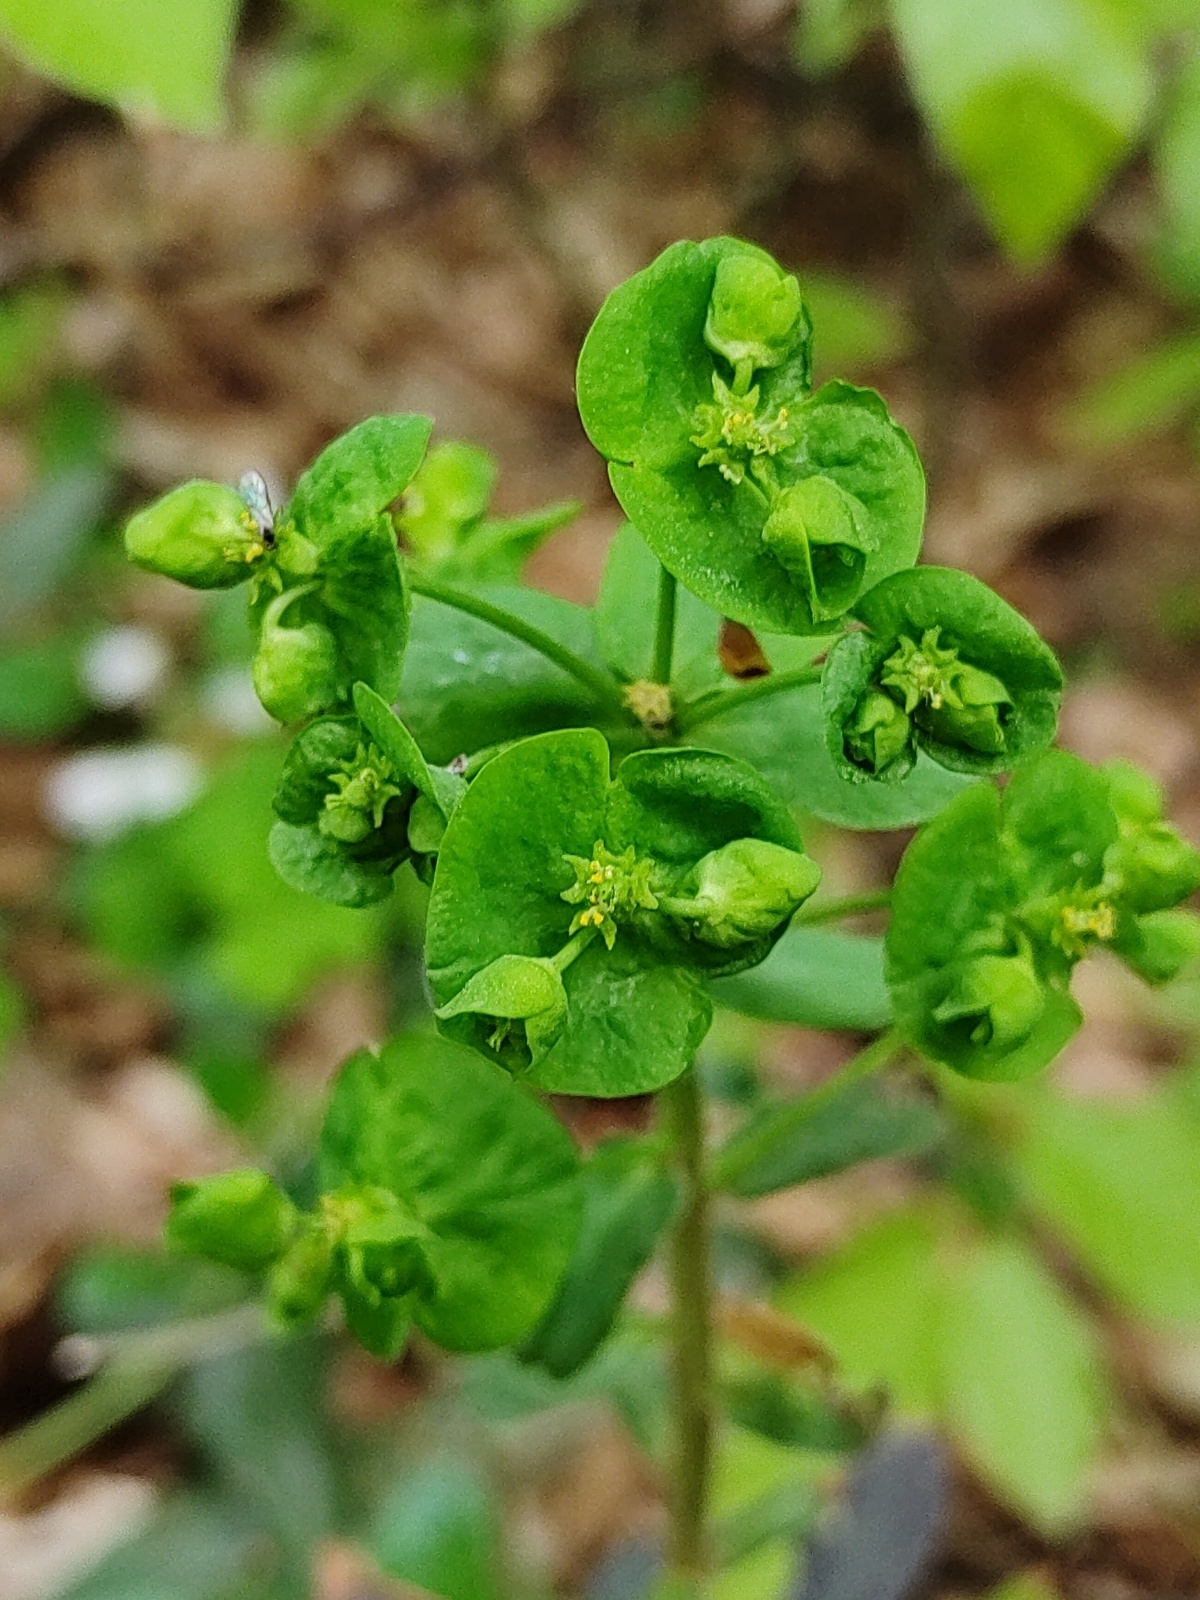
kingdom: Plantae
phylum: Tracheophyta
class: Magnoliopsida
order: Malpighiales
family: Euphorbiaceae
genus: Euphorbia
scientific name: Euphorbia amygdaloides
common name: Wood spurge
